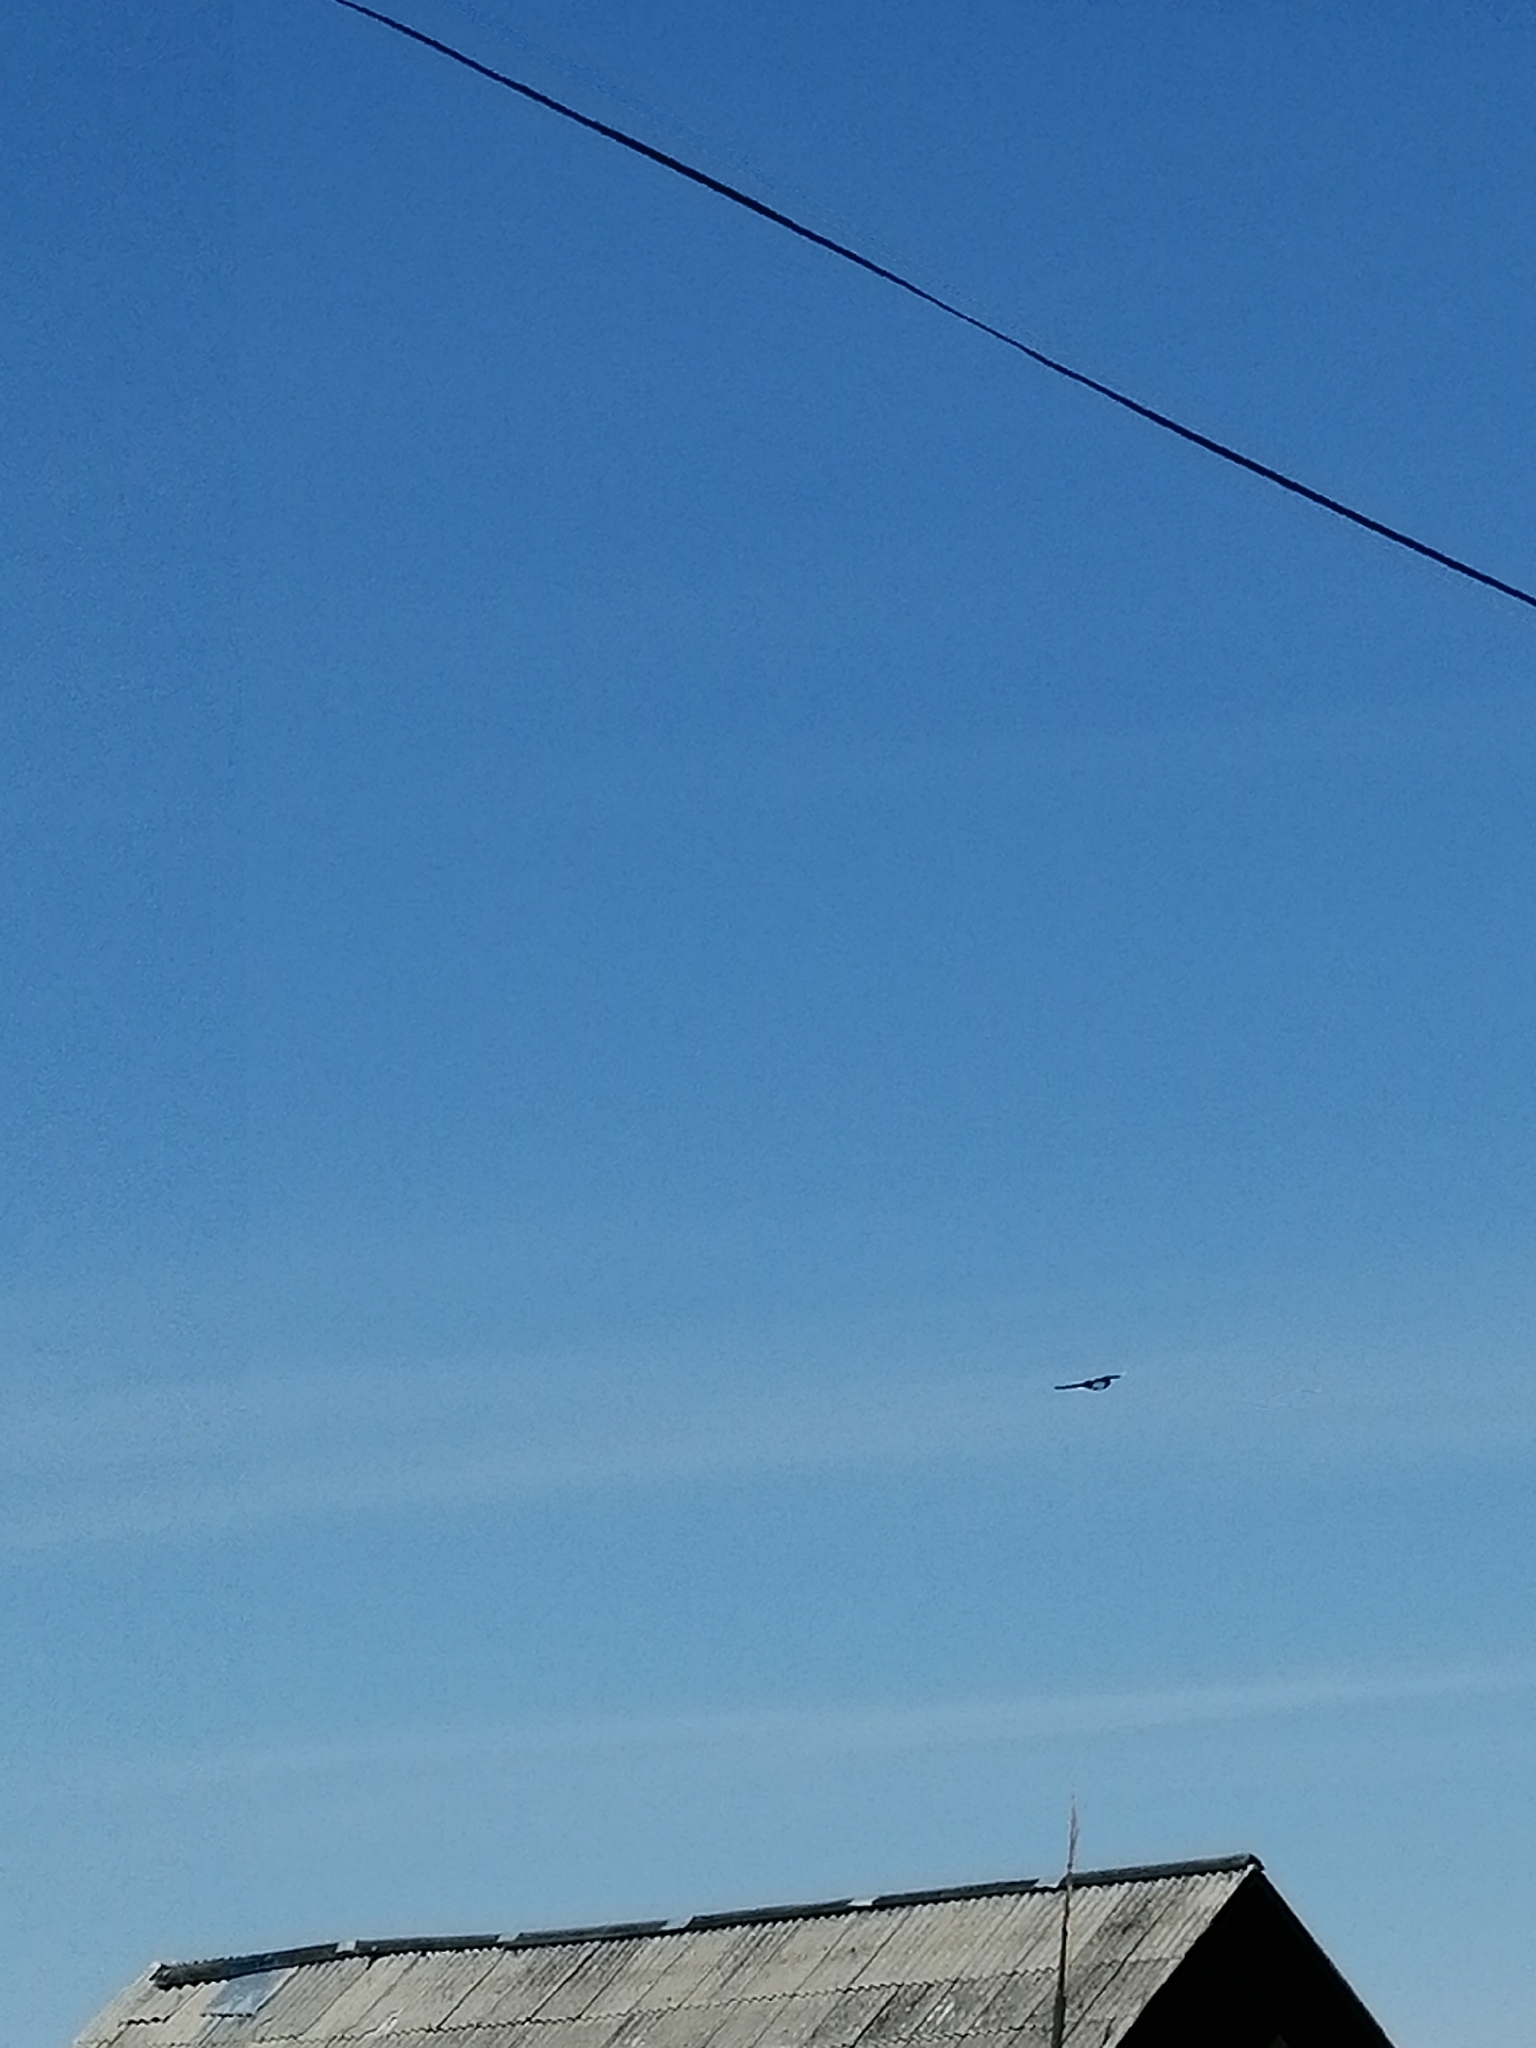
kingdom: Animalia
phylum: Chordata
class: Aves
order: Passeriformes
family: Corvidae
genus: Pica
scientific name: Pica pica
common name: Eurasian magpie
